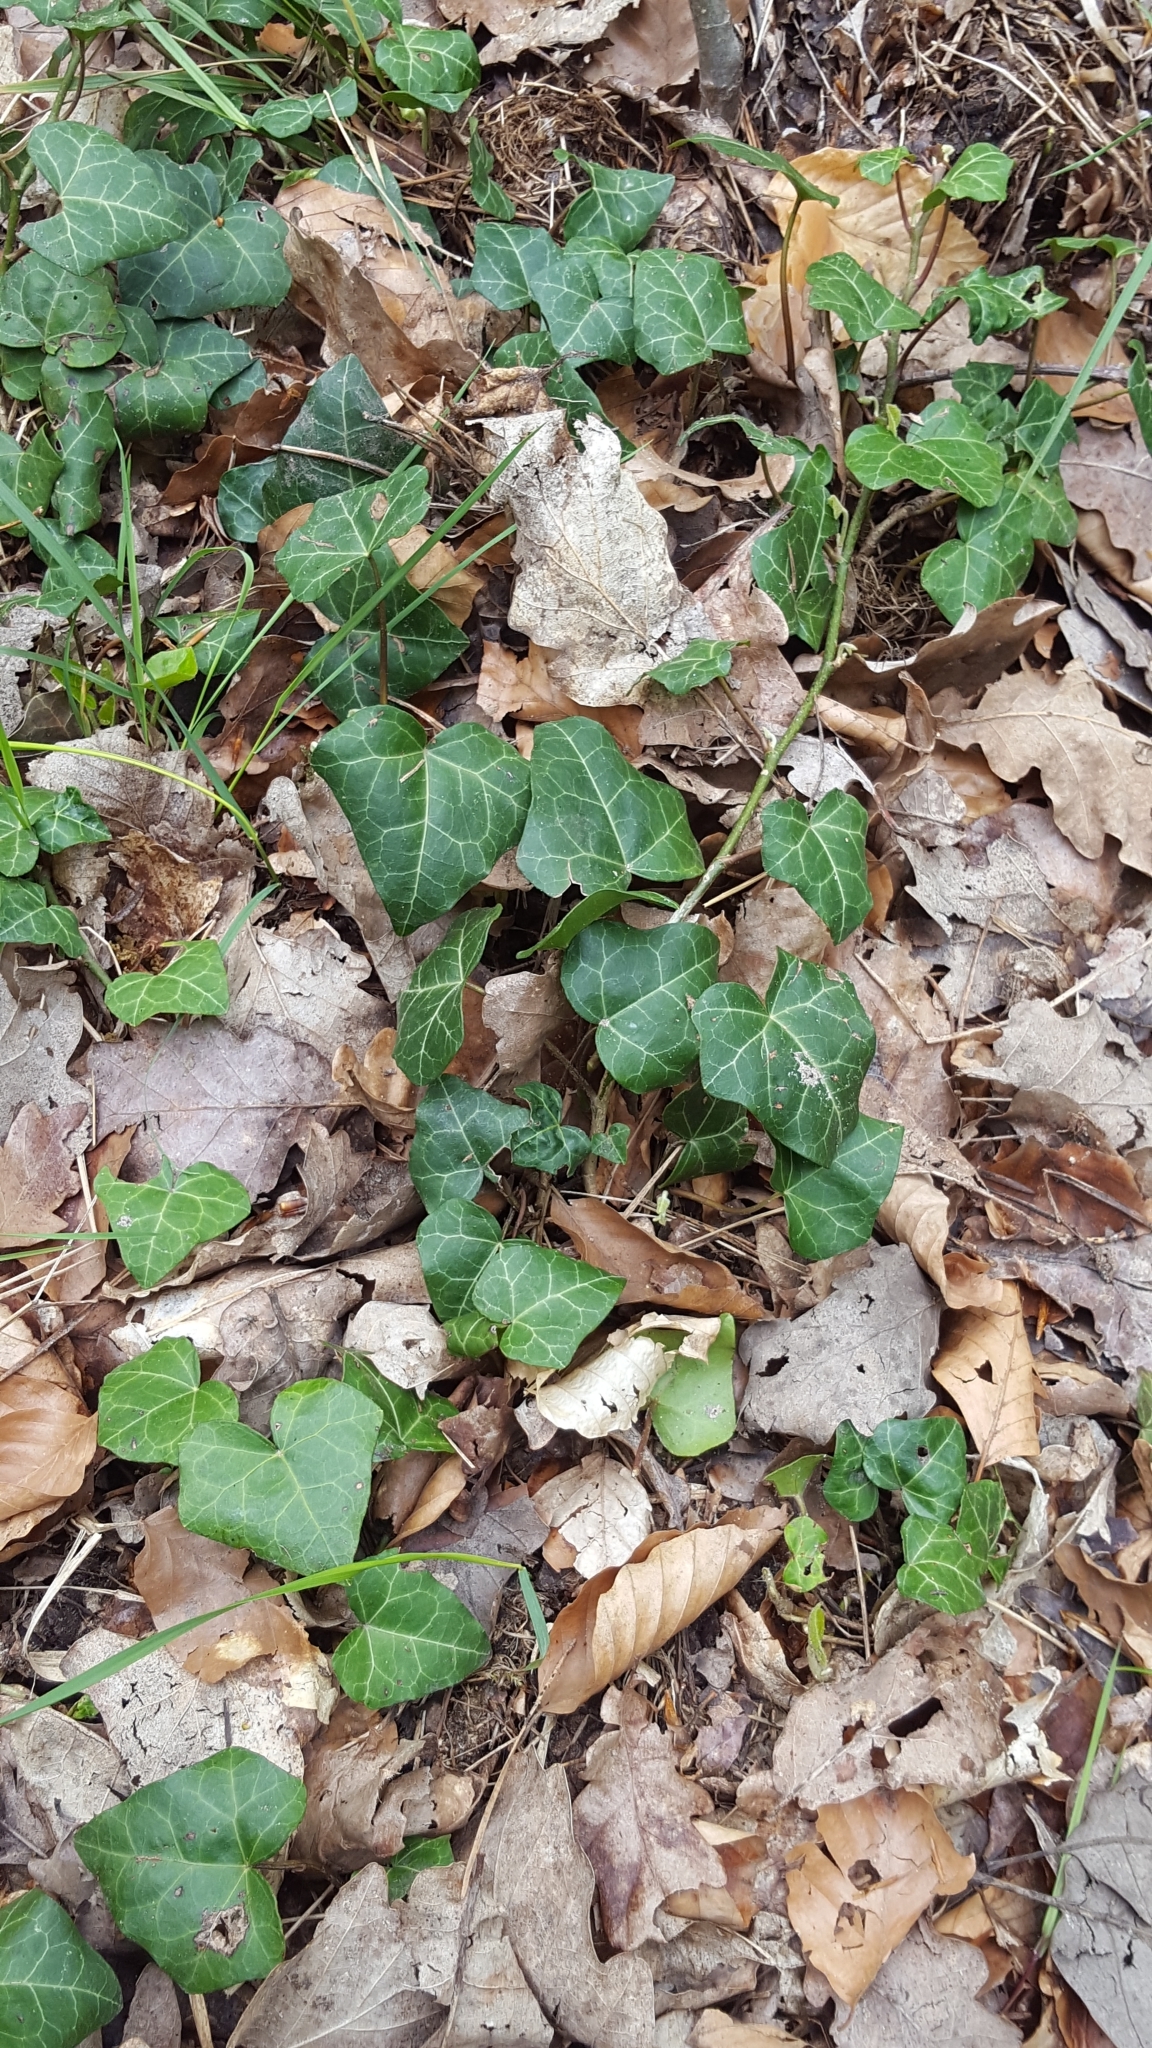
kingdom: Plantae
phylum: Tracheophyta
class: Magnoliopsida
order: Apiales
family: Araliaceae
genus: Hedera
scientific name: Hedera helix
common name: Ivy
